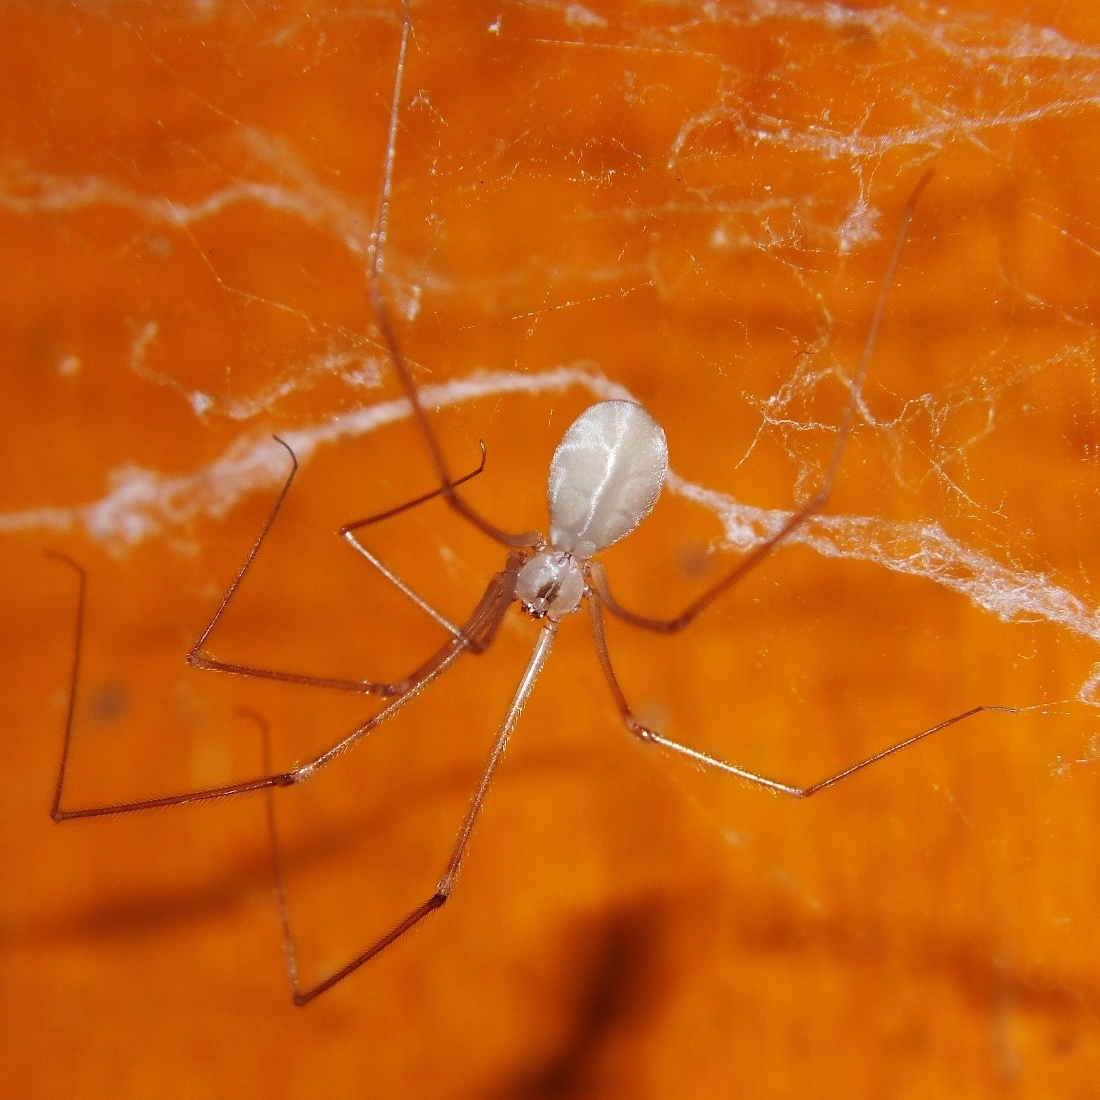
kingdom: Animalia
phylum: Arthropoda
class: Arachnida
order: Araneae
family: Pholcidae
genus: Pholcus
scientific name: Pholcus ponticus
